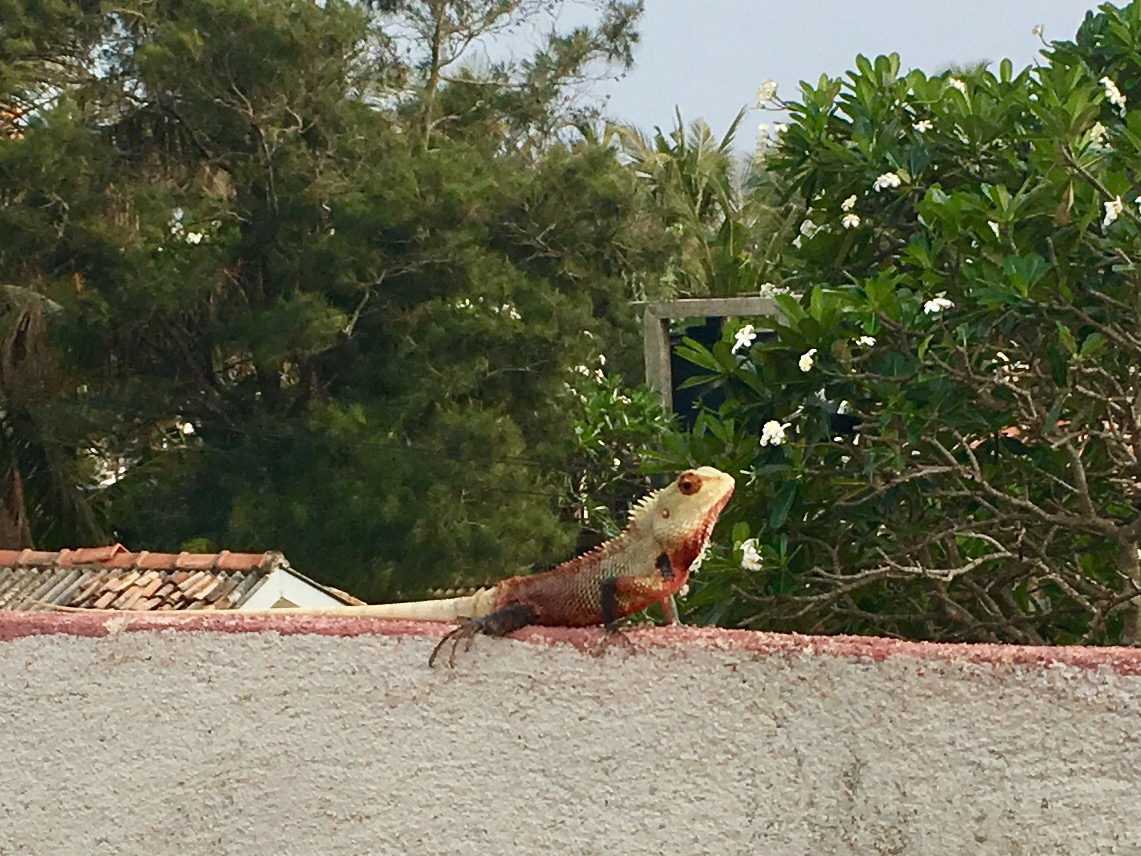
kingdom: Animalia
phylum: Chordata
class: Squamata
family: Agamidae
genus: Calotes
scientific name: Calotes versicolor
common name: Oriental garden lizard
